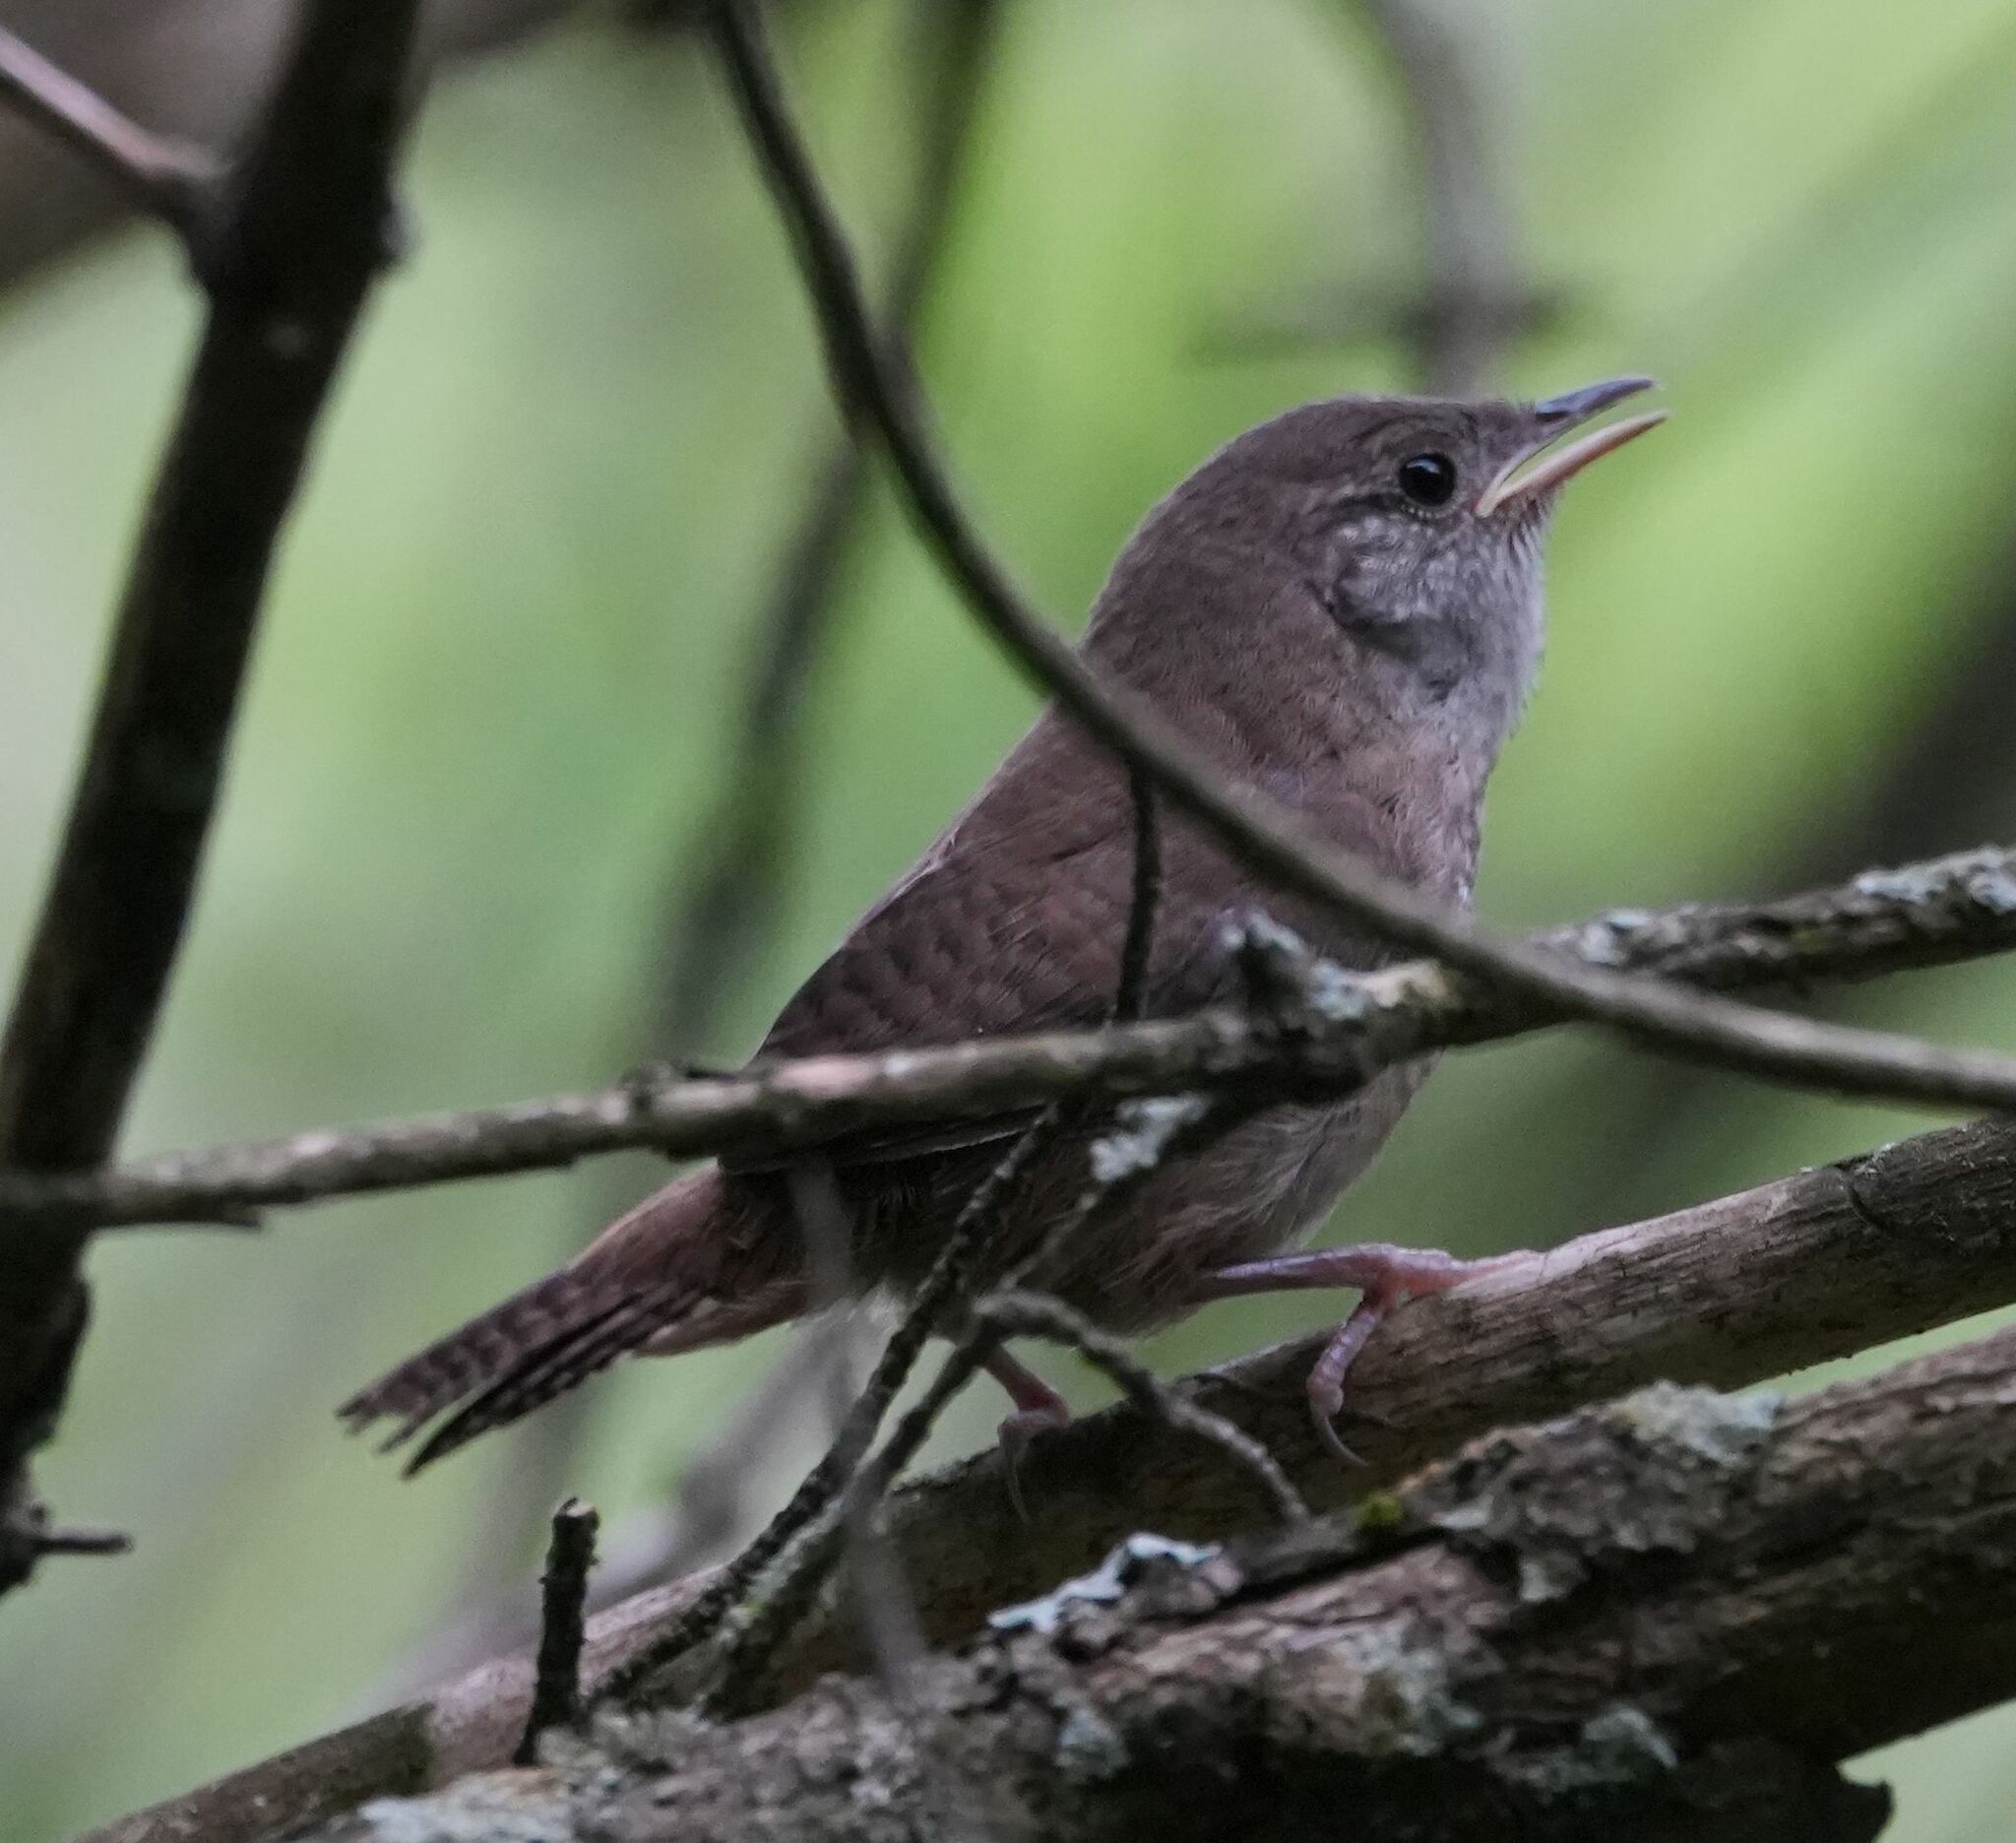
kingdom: Animalia
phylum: Chordata
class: Aves
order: Passeriformes
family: Troglodytidae
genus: Troglodytes
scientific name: Troglodytes aedon
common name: House wren
